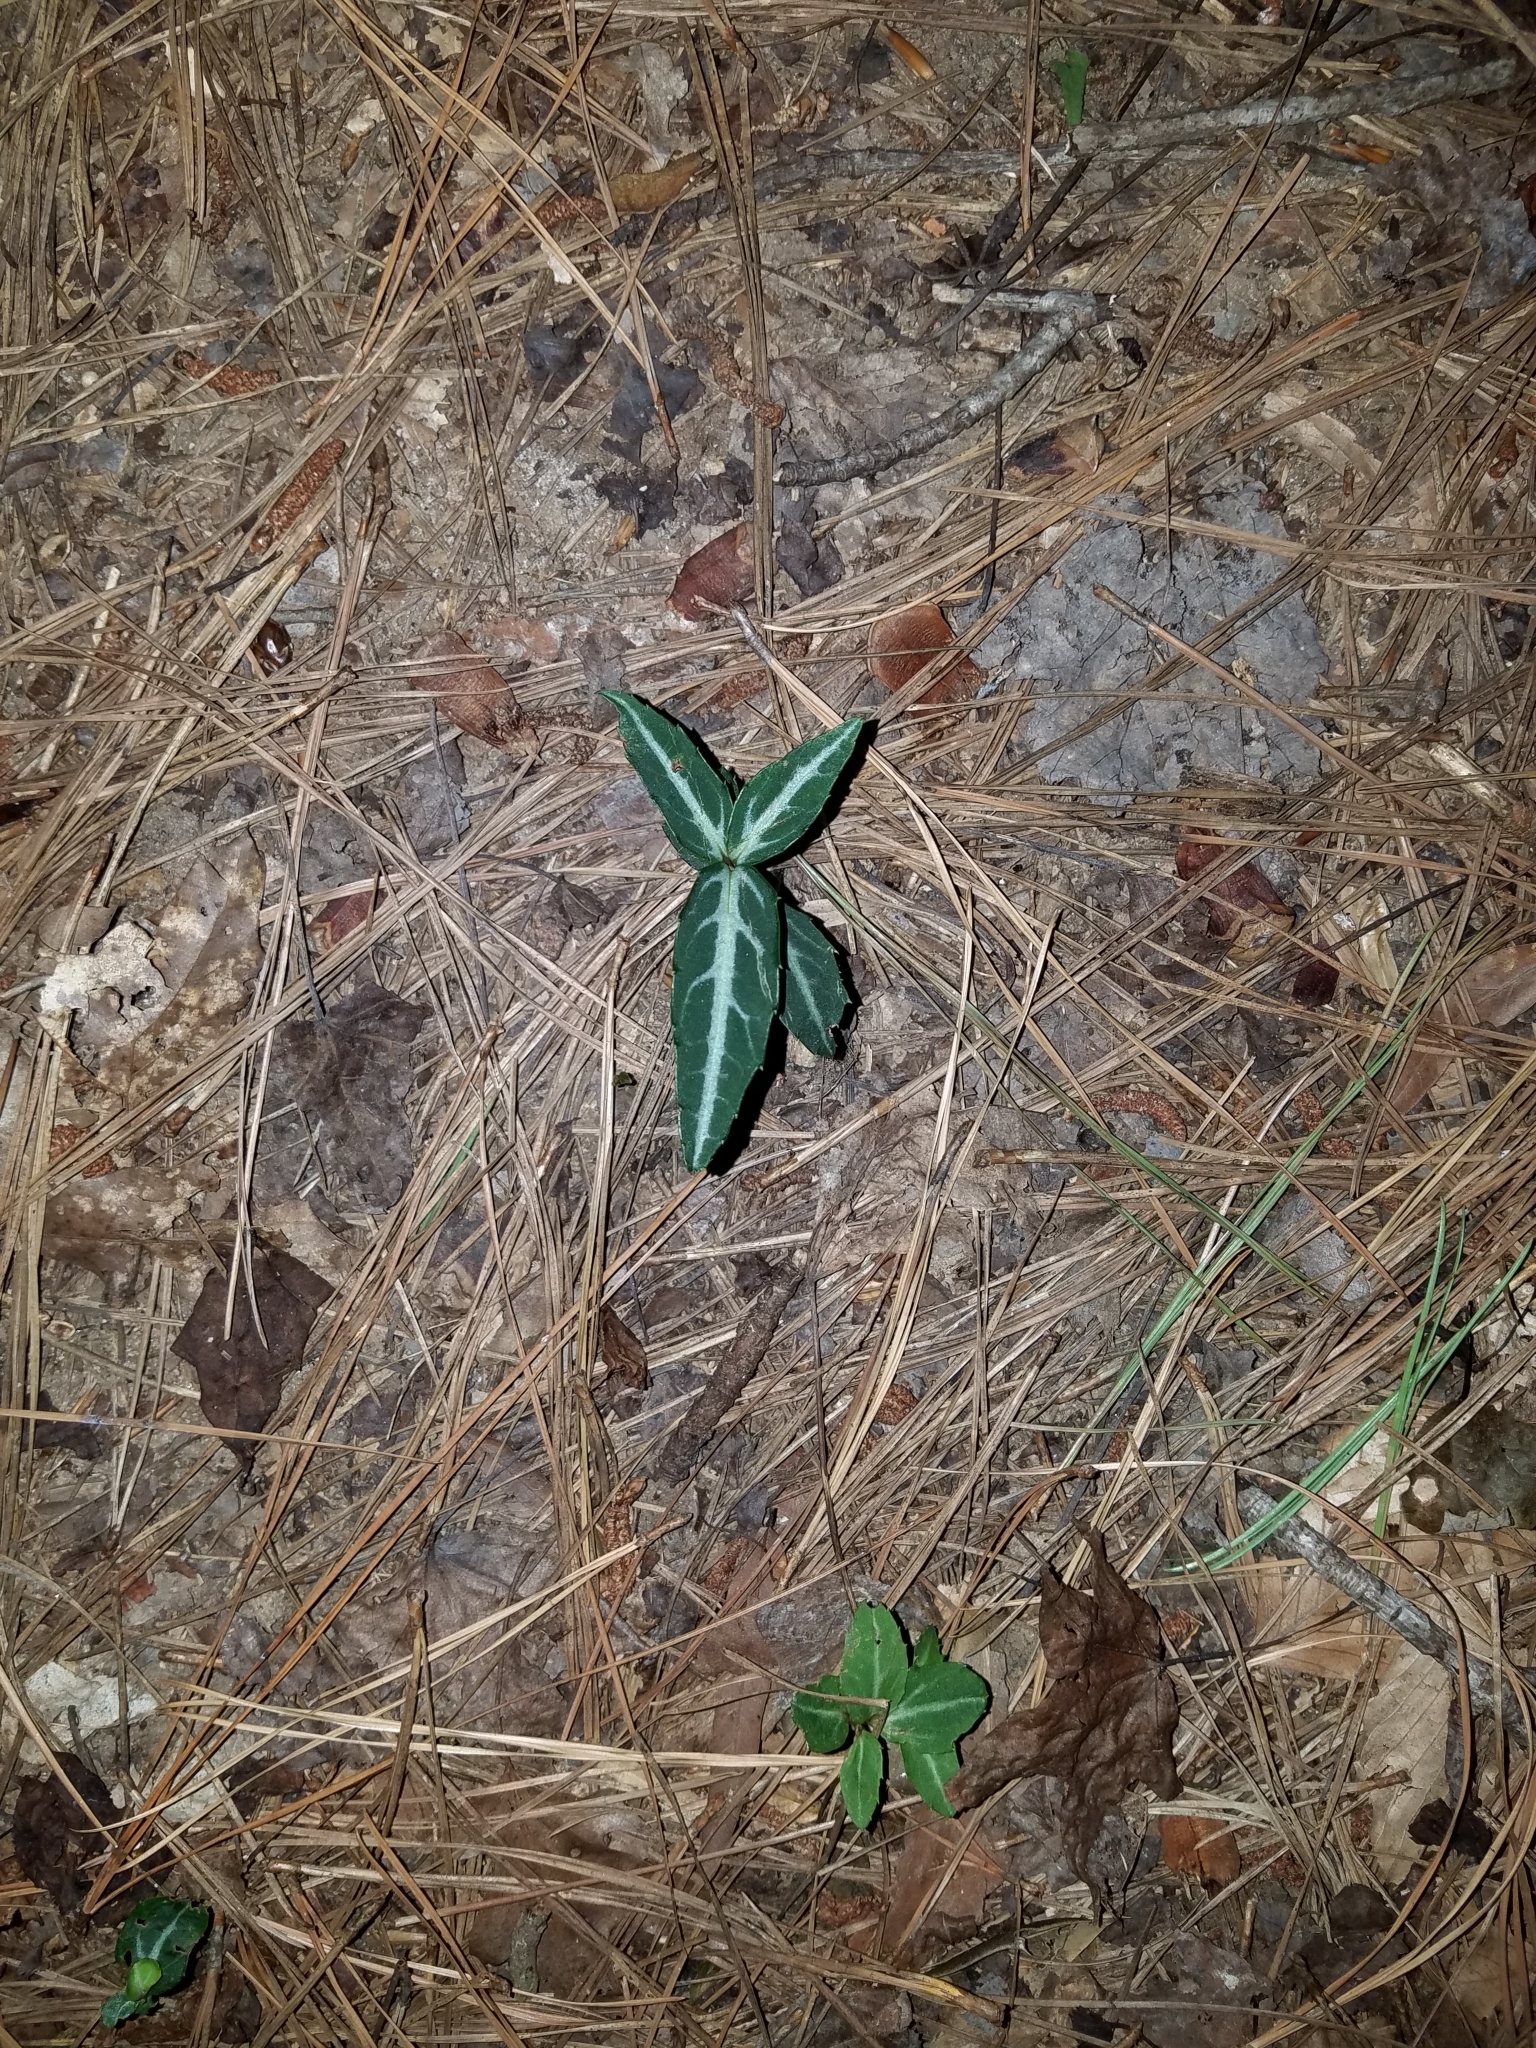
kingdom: Plantae
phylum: Tracheophyta
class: Magnoliopsida
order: Ericales
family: Ericaceae
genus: Chimaphila
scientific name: Chimaphila maculata
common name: Spotted pipsissewa
